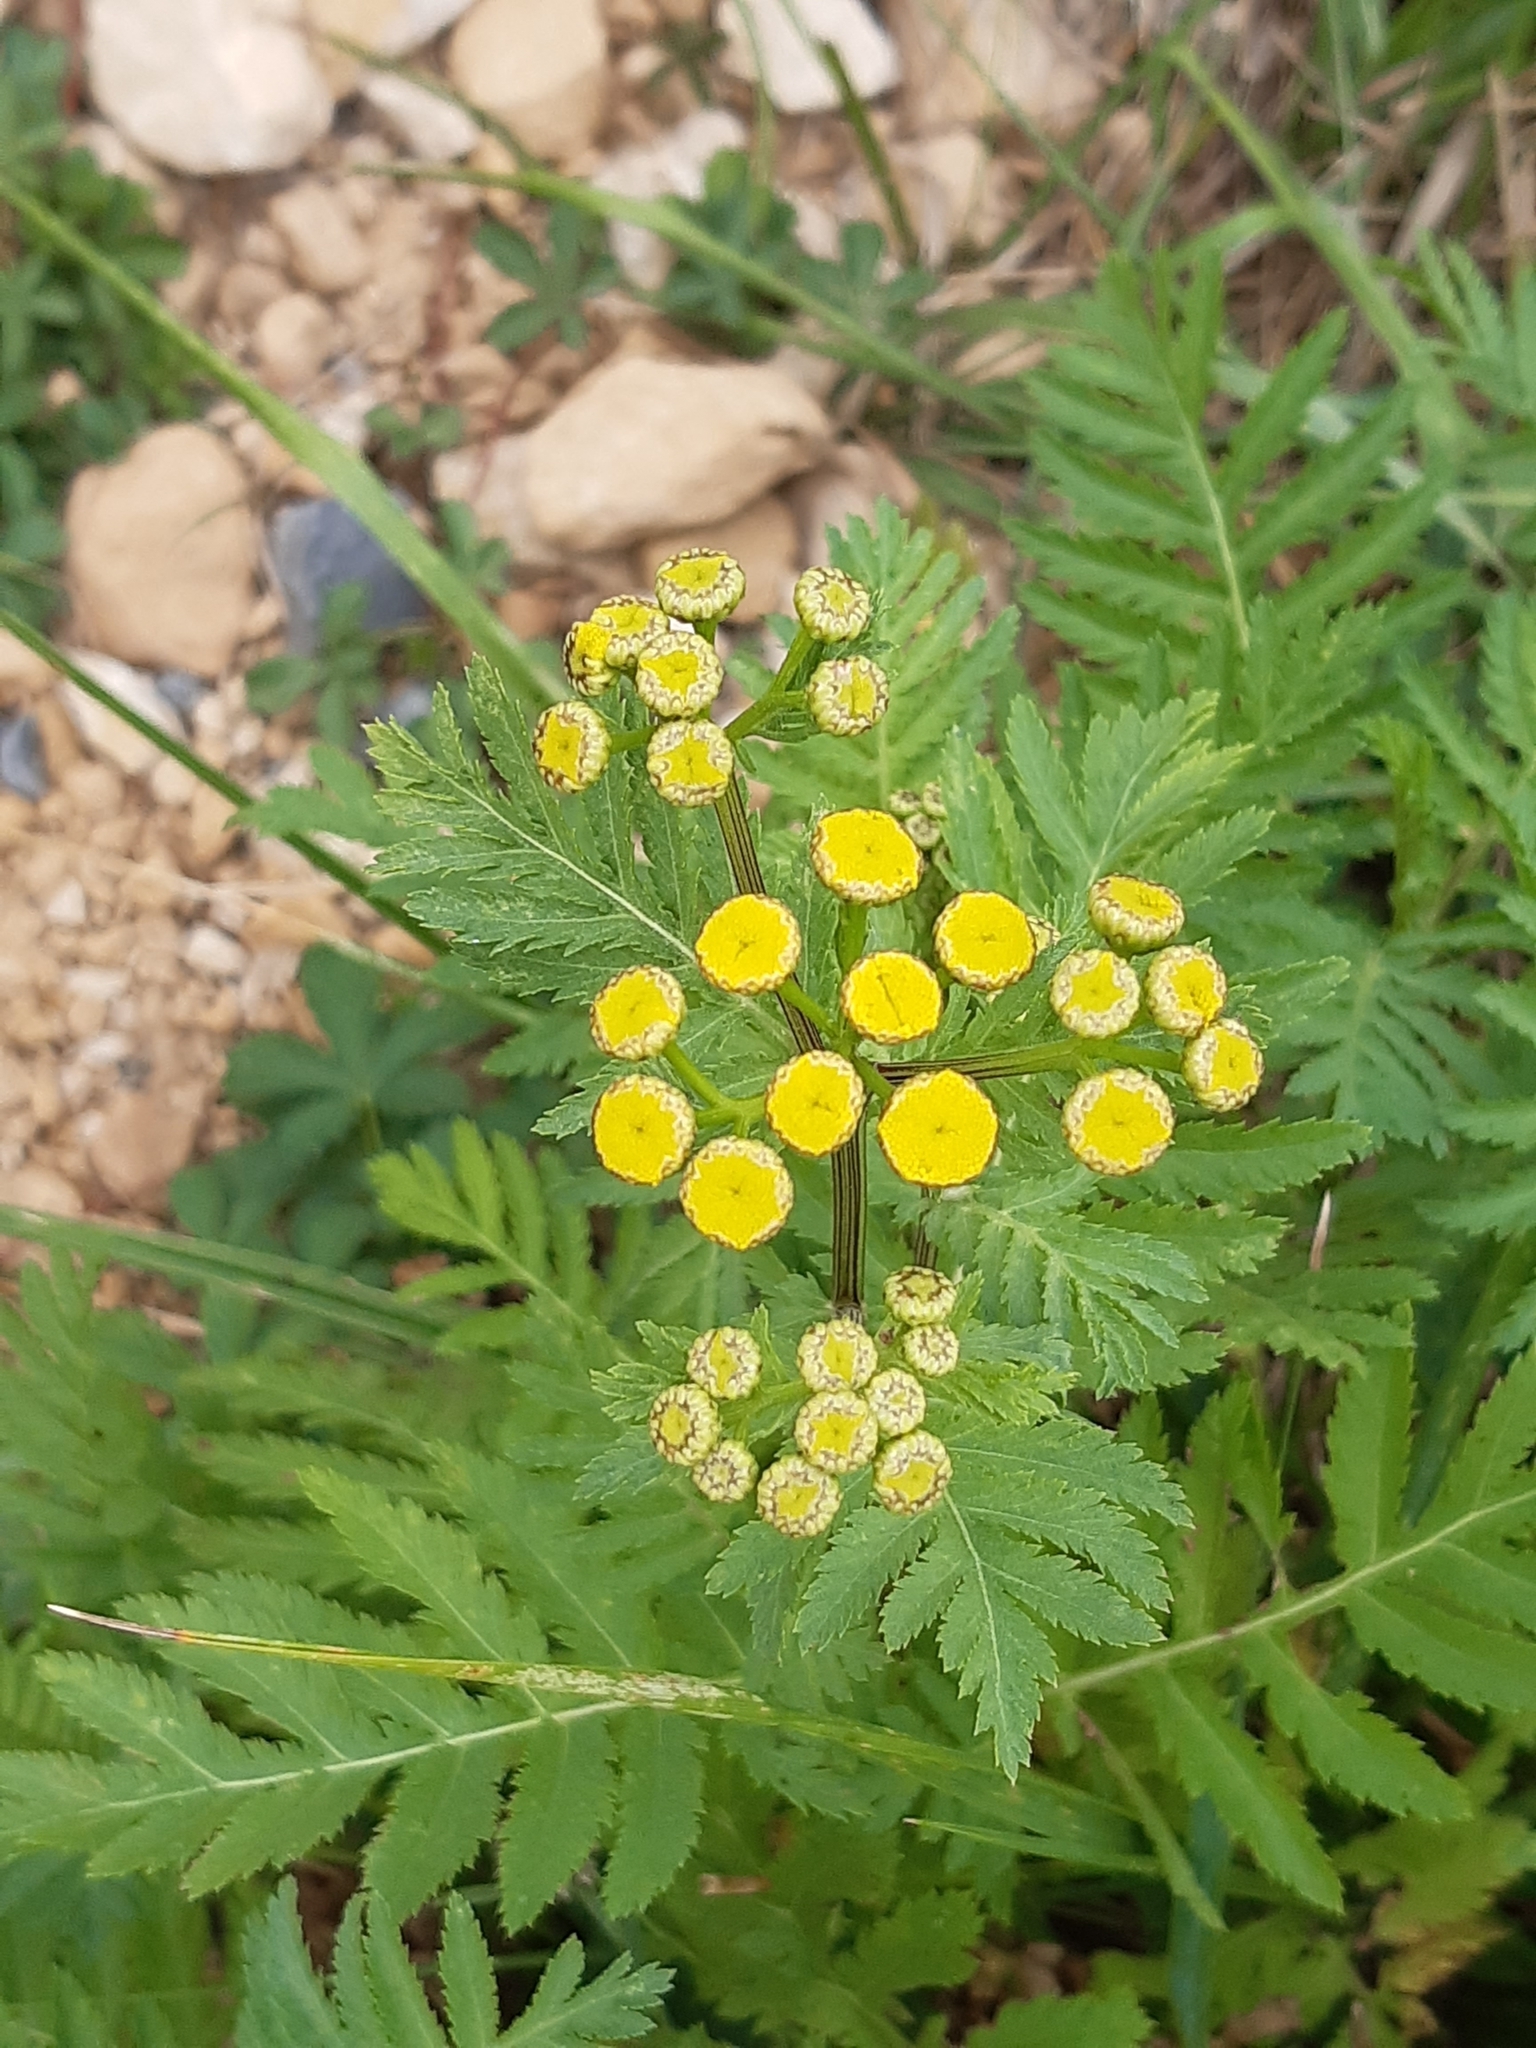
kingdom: Plantae
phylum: Tracheophyta
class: Magnoliopsida
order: Asterales
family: Asteraceae
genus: Tanacetum
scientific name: Tanacetum vulgare
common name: Common tansy
